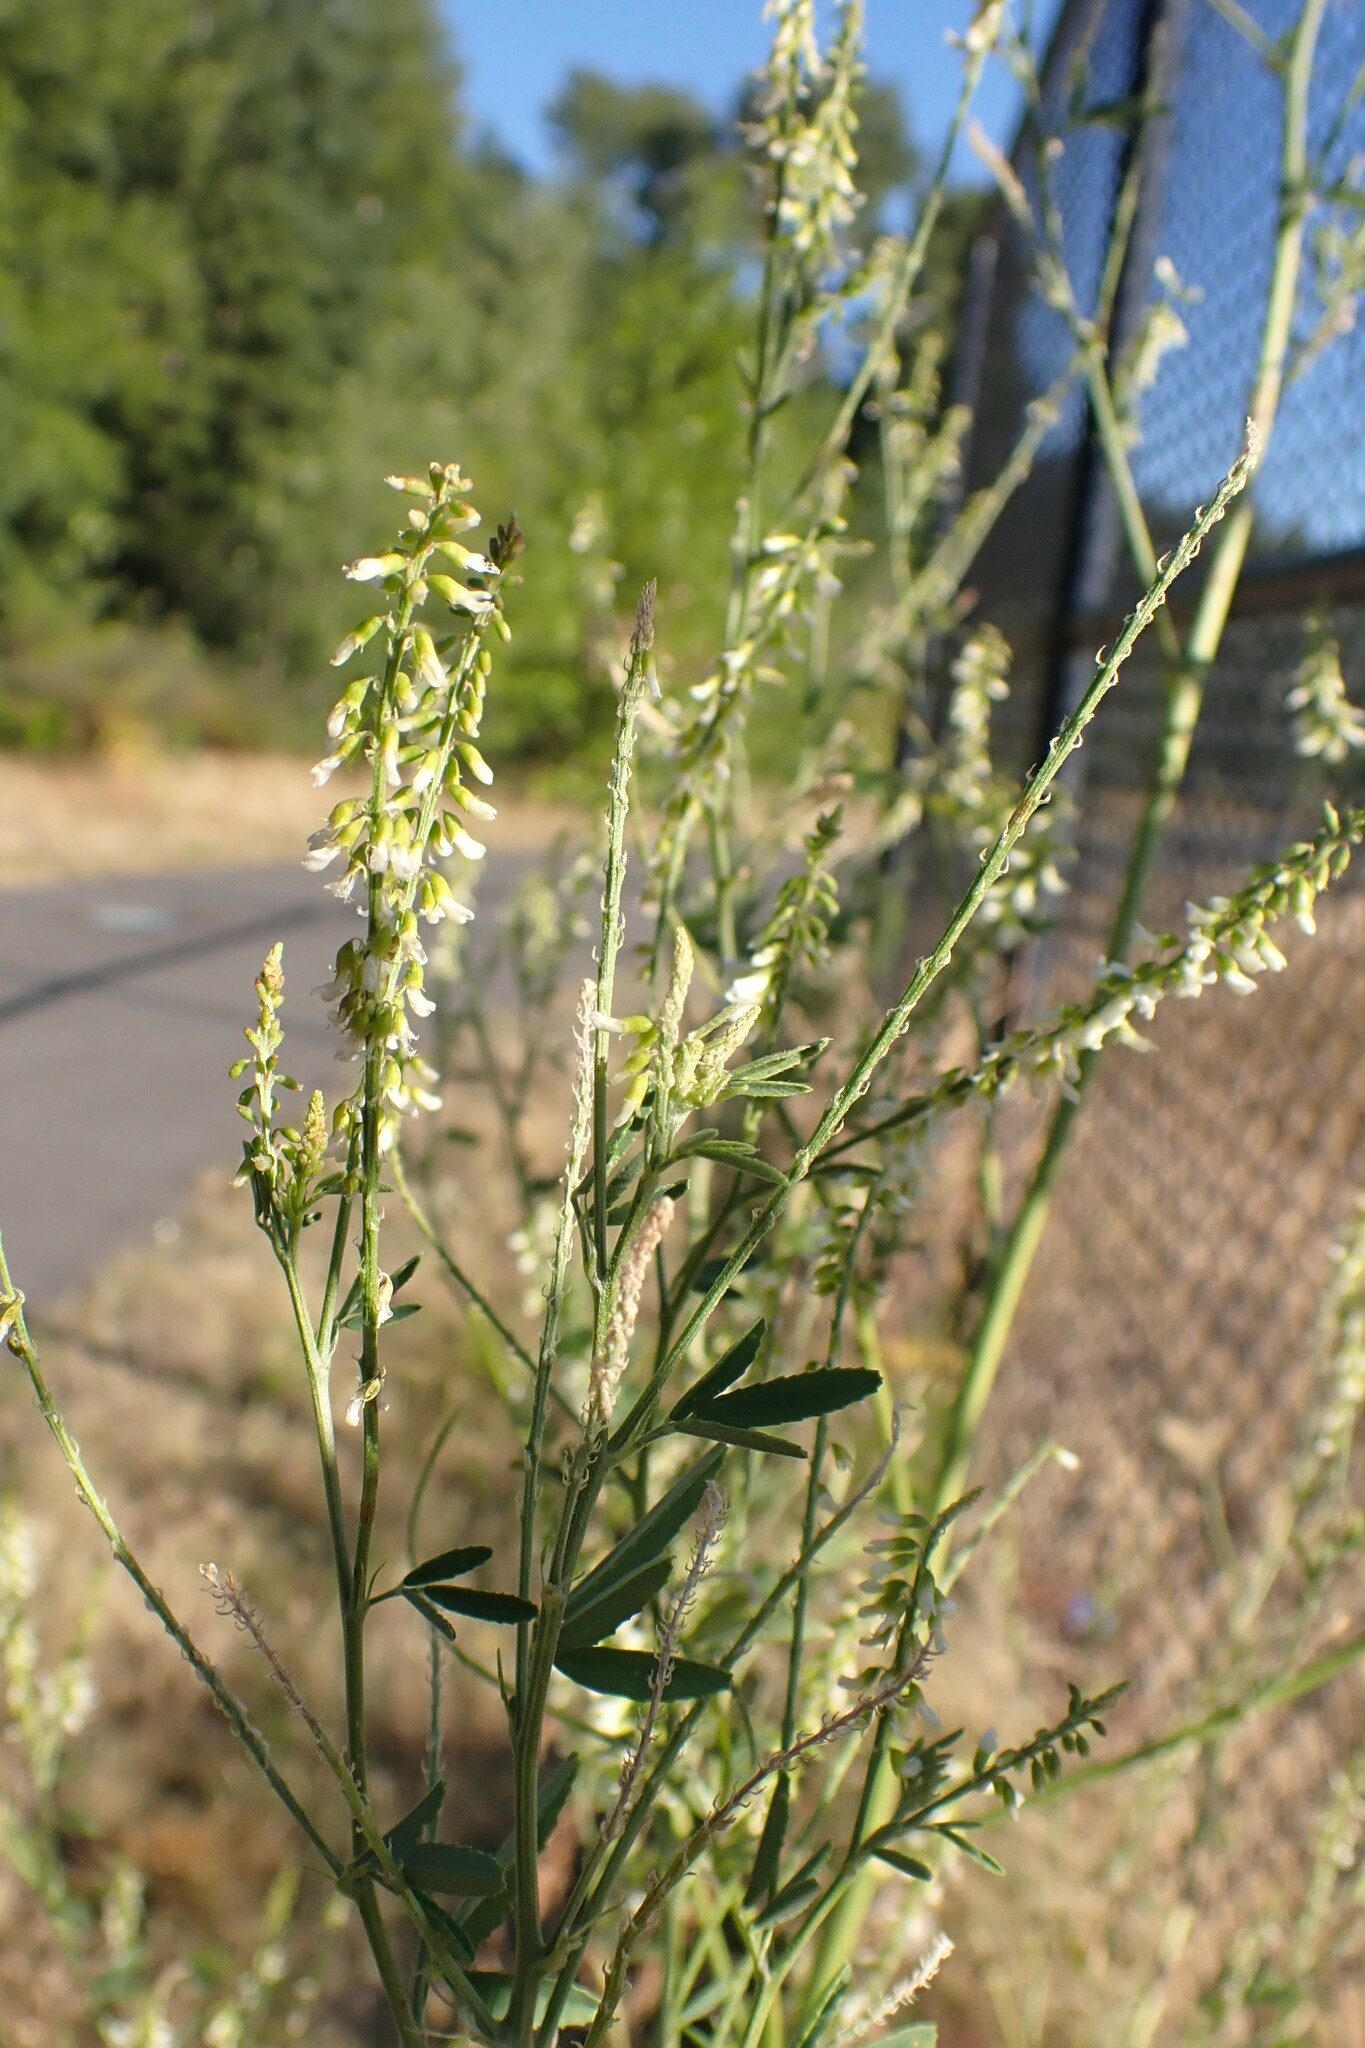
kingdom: Plantae
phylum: Tracheophyta
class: Magnoliopsida
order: Fabales
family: Fabaceae
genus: Melilotus
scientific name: Melilotus albus
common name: White melilot
